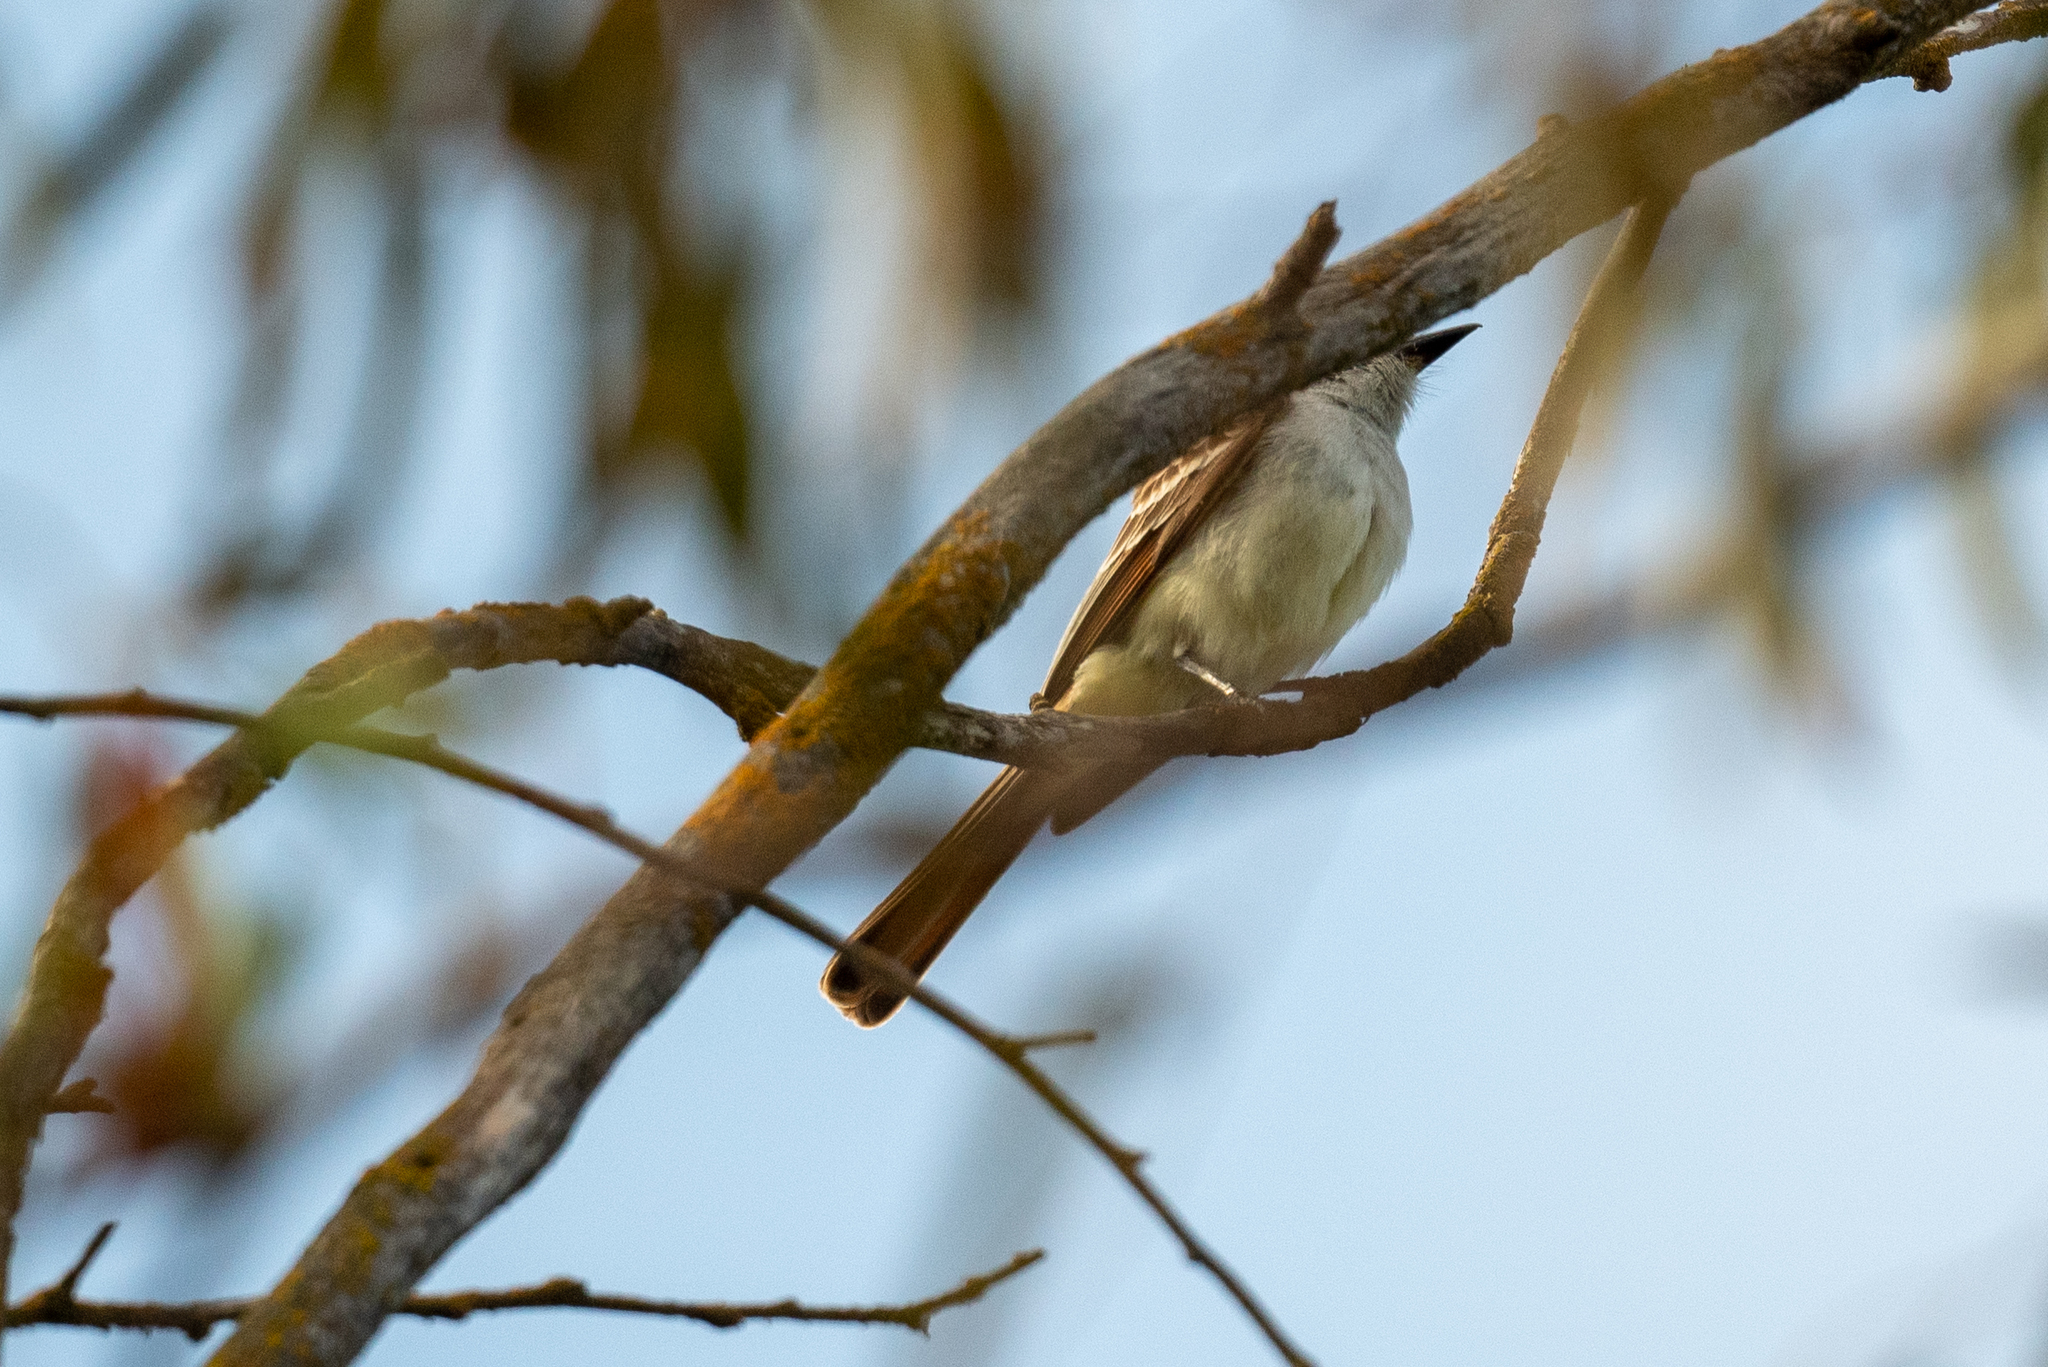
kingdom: Animalia
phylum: Chordata
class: Aves
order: Passeriformes
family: Tyrannidae
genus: Myiarchus
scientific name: Myiarchus cinerascens
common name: Ash-throated flycatcher
